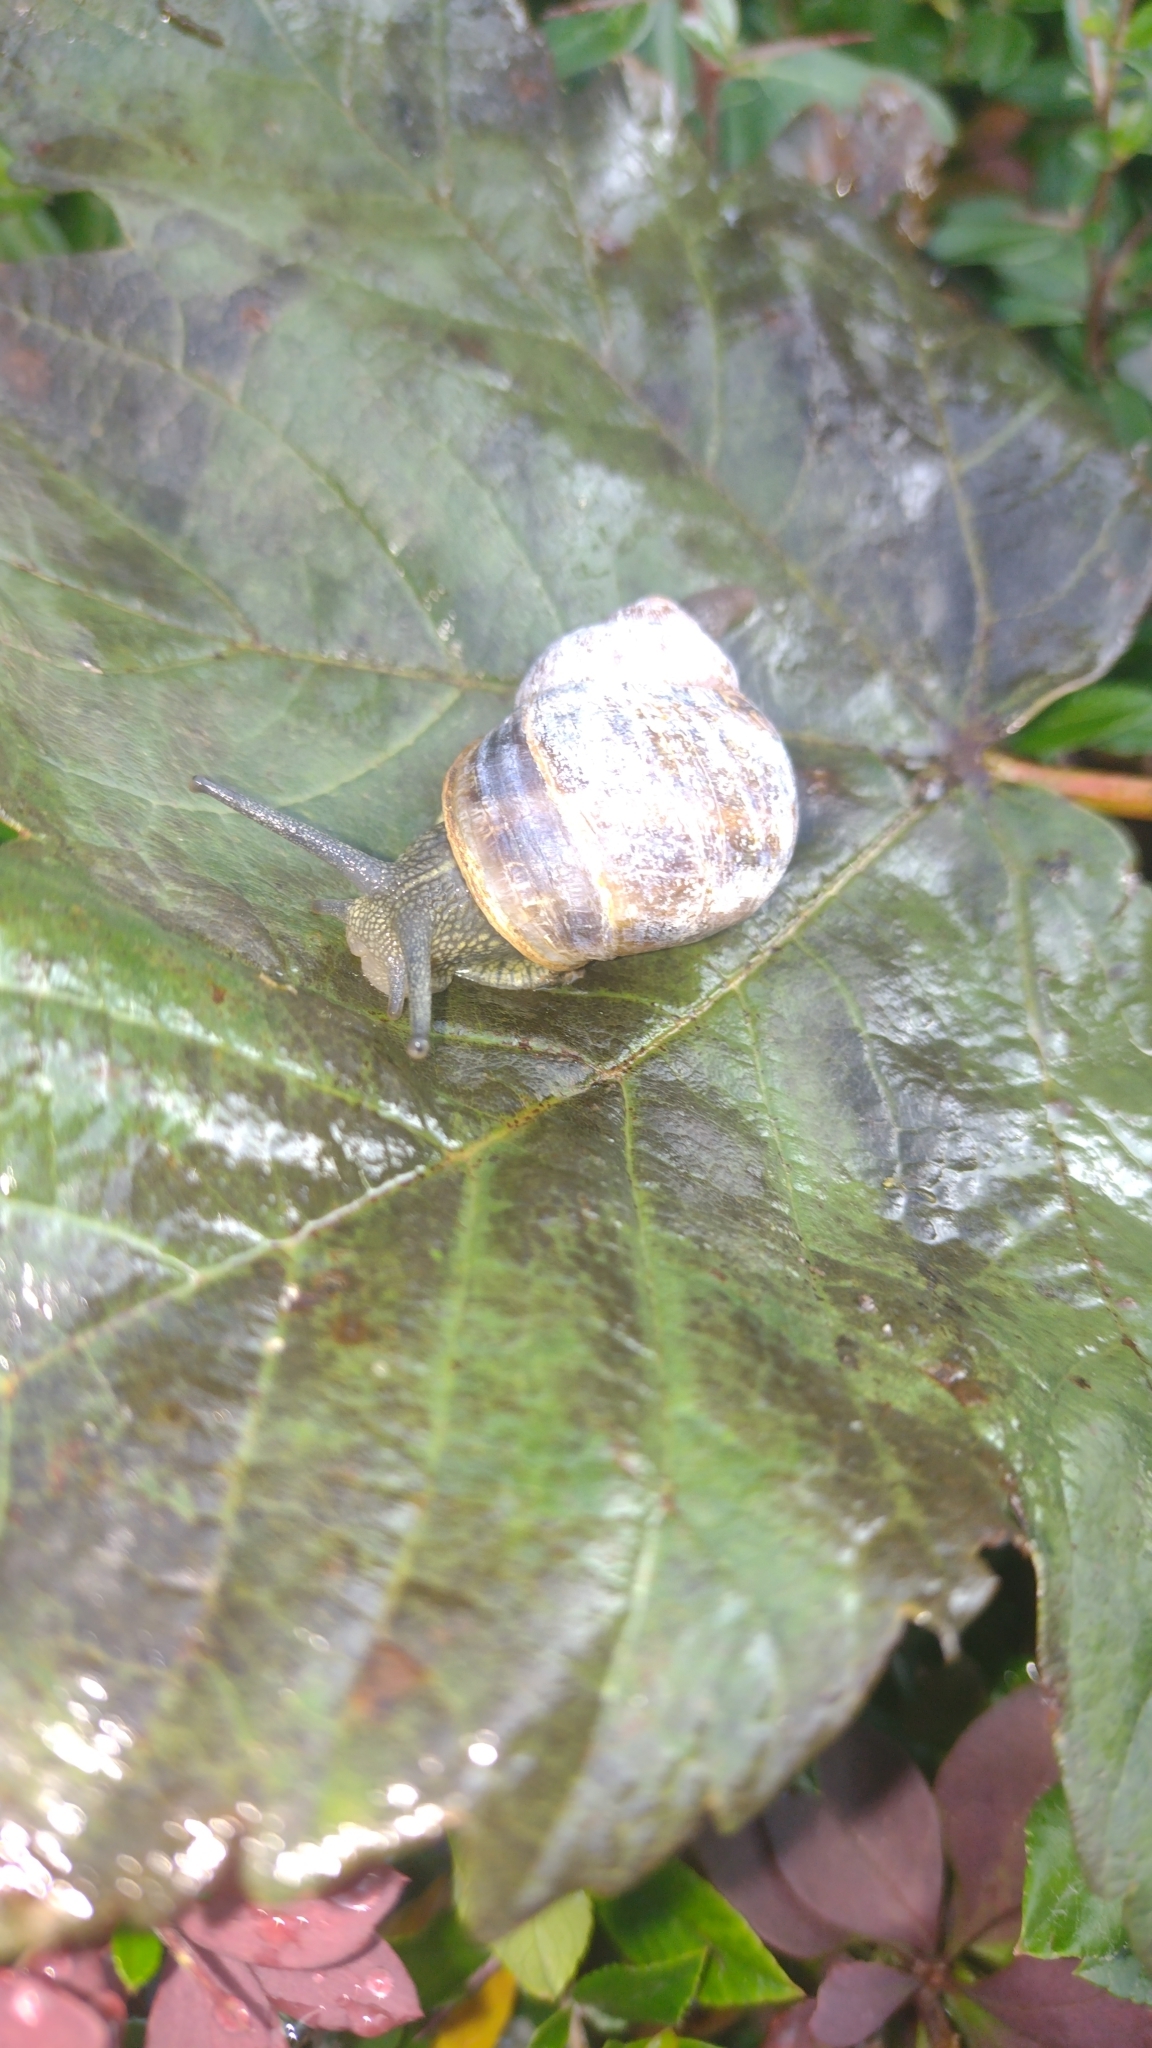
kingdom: Animalia
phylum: Mollusca
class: Gastropoda
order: Stylommatophora
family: Helicidae
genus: Cornu
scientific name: Cornu aspersum
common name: Brown garden snail
